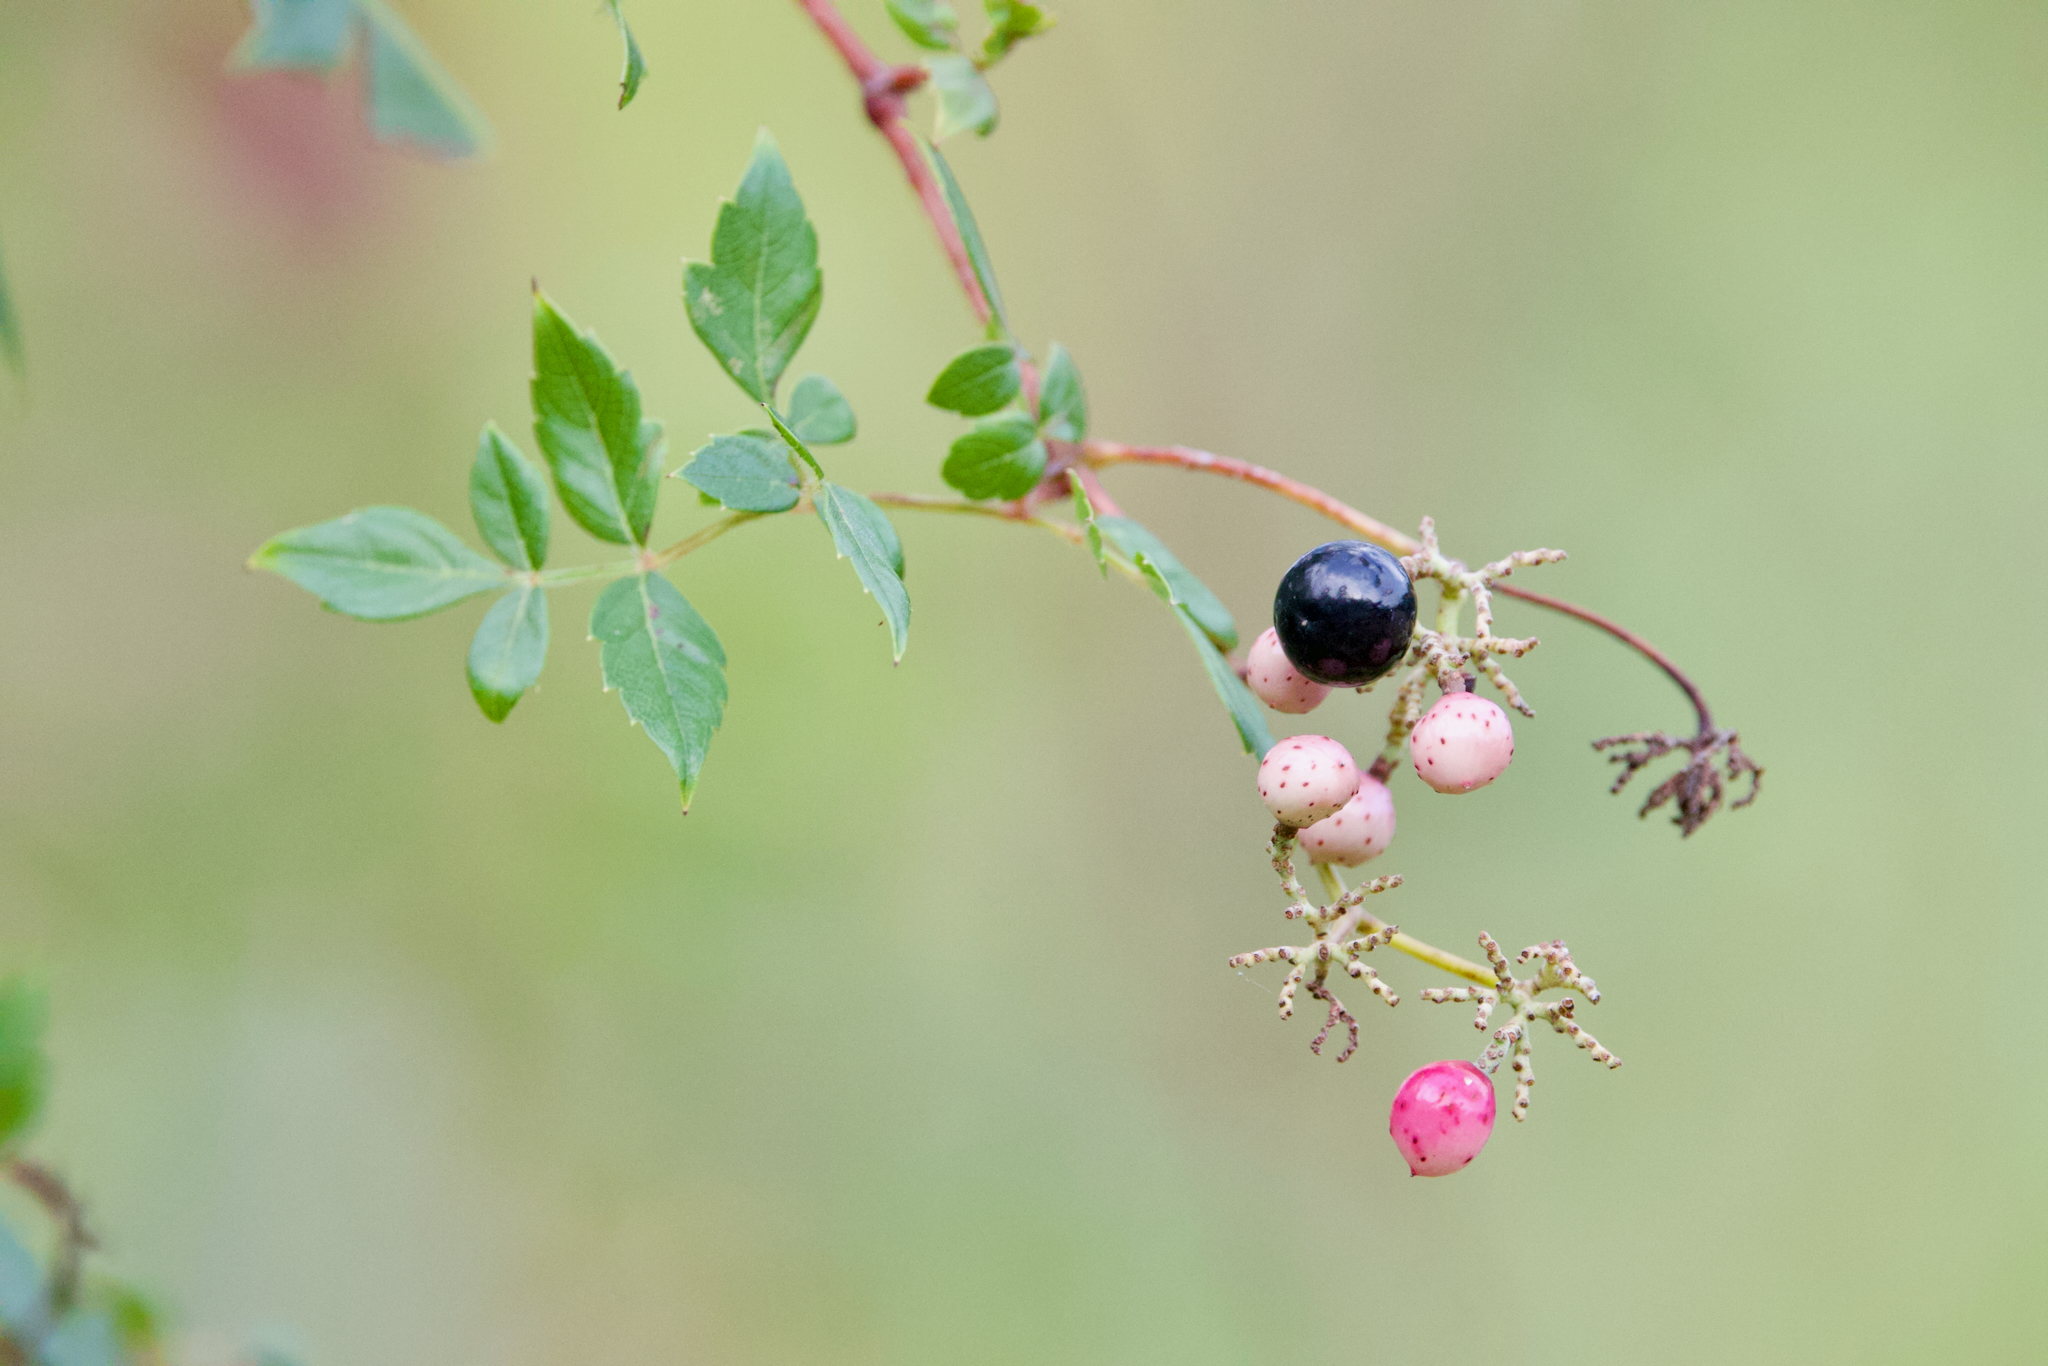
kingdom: Plantae
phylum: Tracheophyta
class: Magnoliopsida
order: Vitales
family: Vitaceae
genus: Nekemias
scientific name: Nekemias arborea
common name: Peppervine
